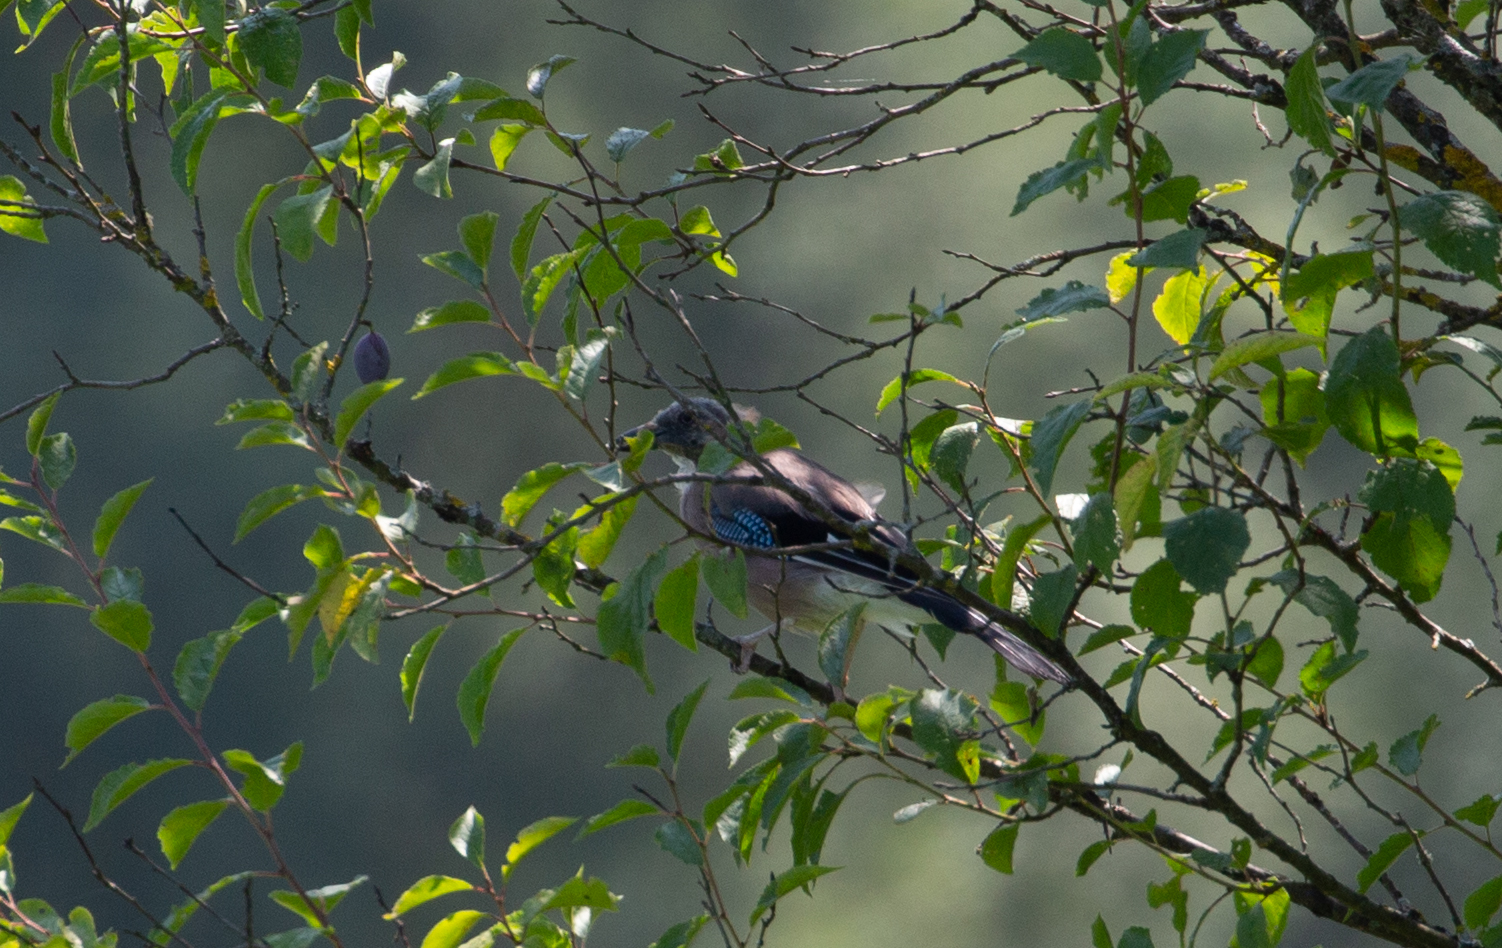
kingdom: Animalia
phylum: Chordata
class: Aves
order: Passeriformes
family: Corvidae
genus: Garrulus
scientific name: Garrulus glandarius
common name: Eurasian jay
